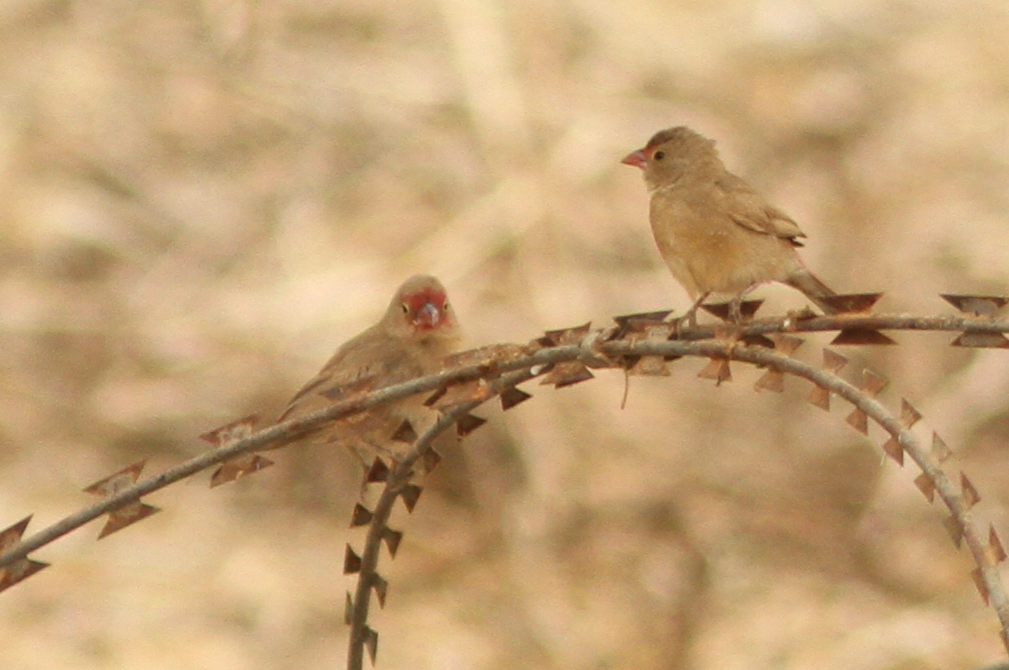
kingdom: Animalia
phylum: Chordata
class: Aves
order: Passeriformes
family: Estrildidae
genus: Lagonosticta
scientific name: Lagonosticta senegala
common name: Red-billed firefinch
